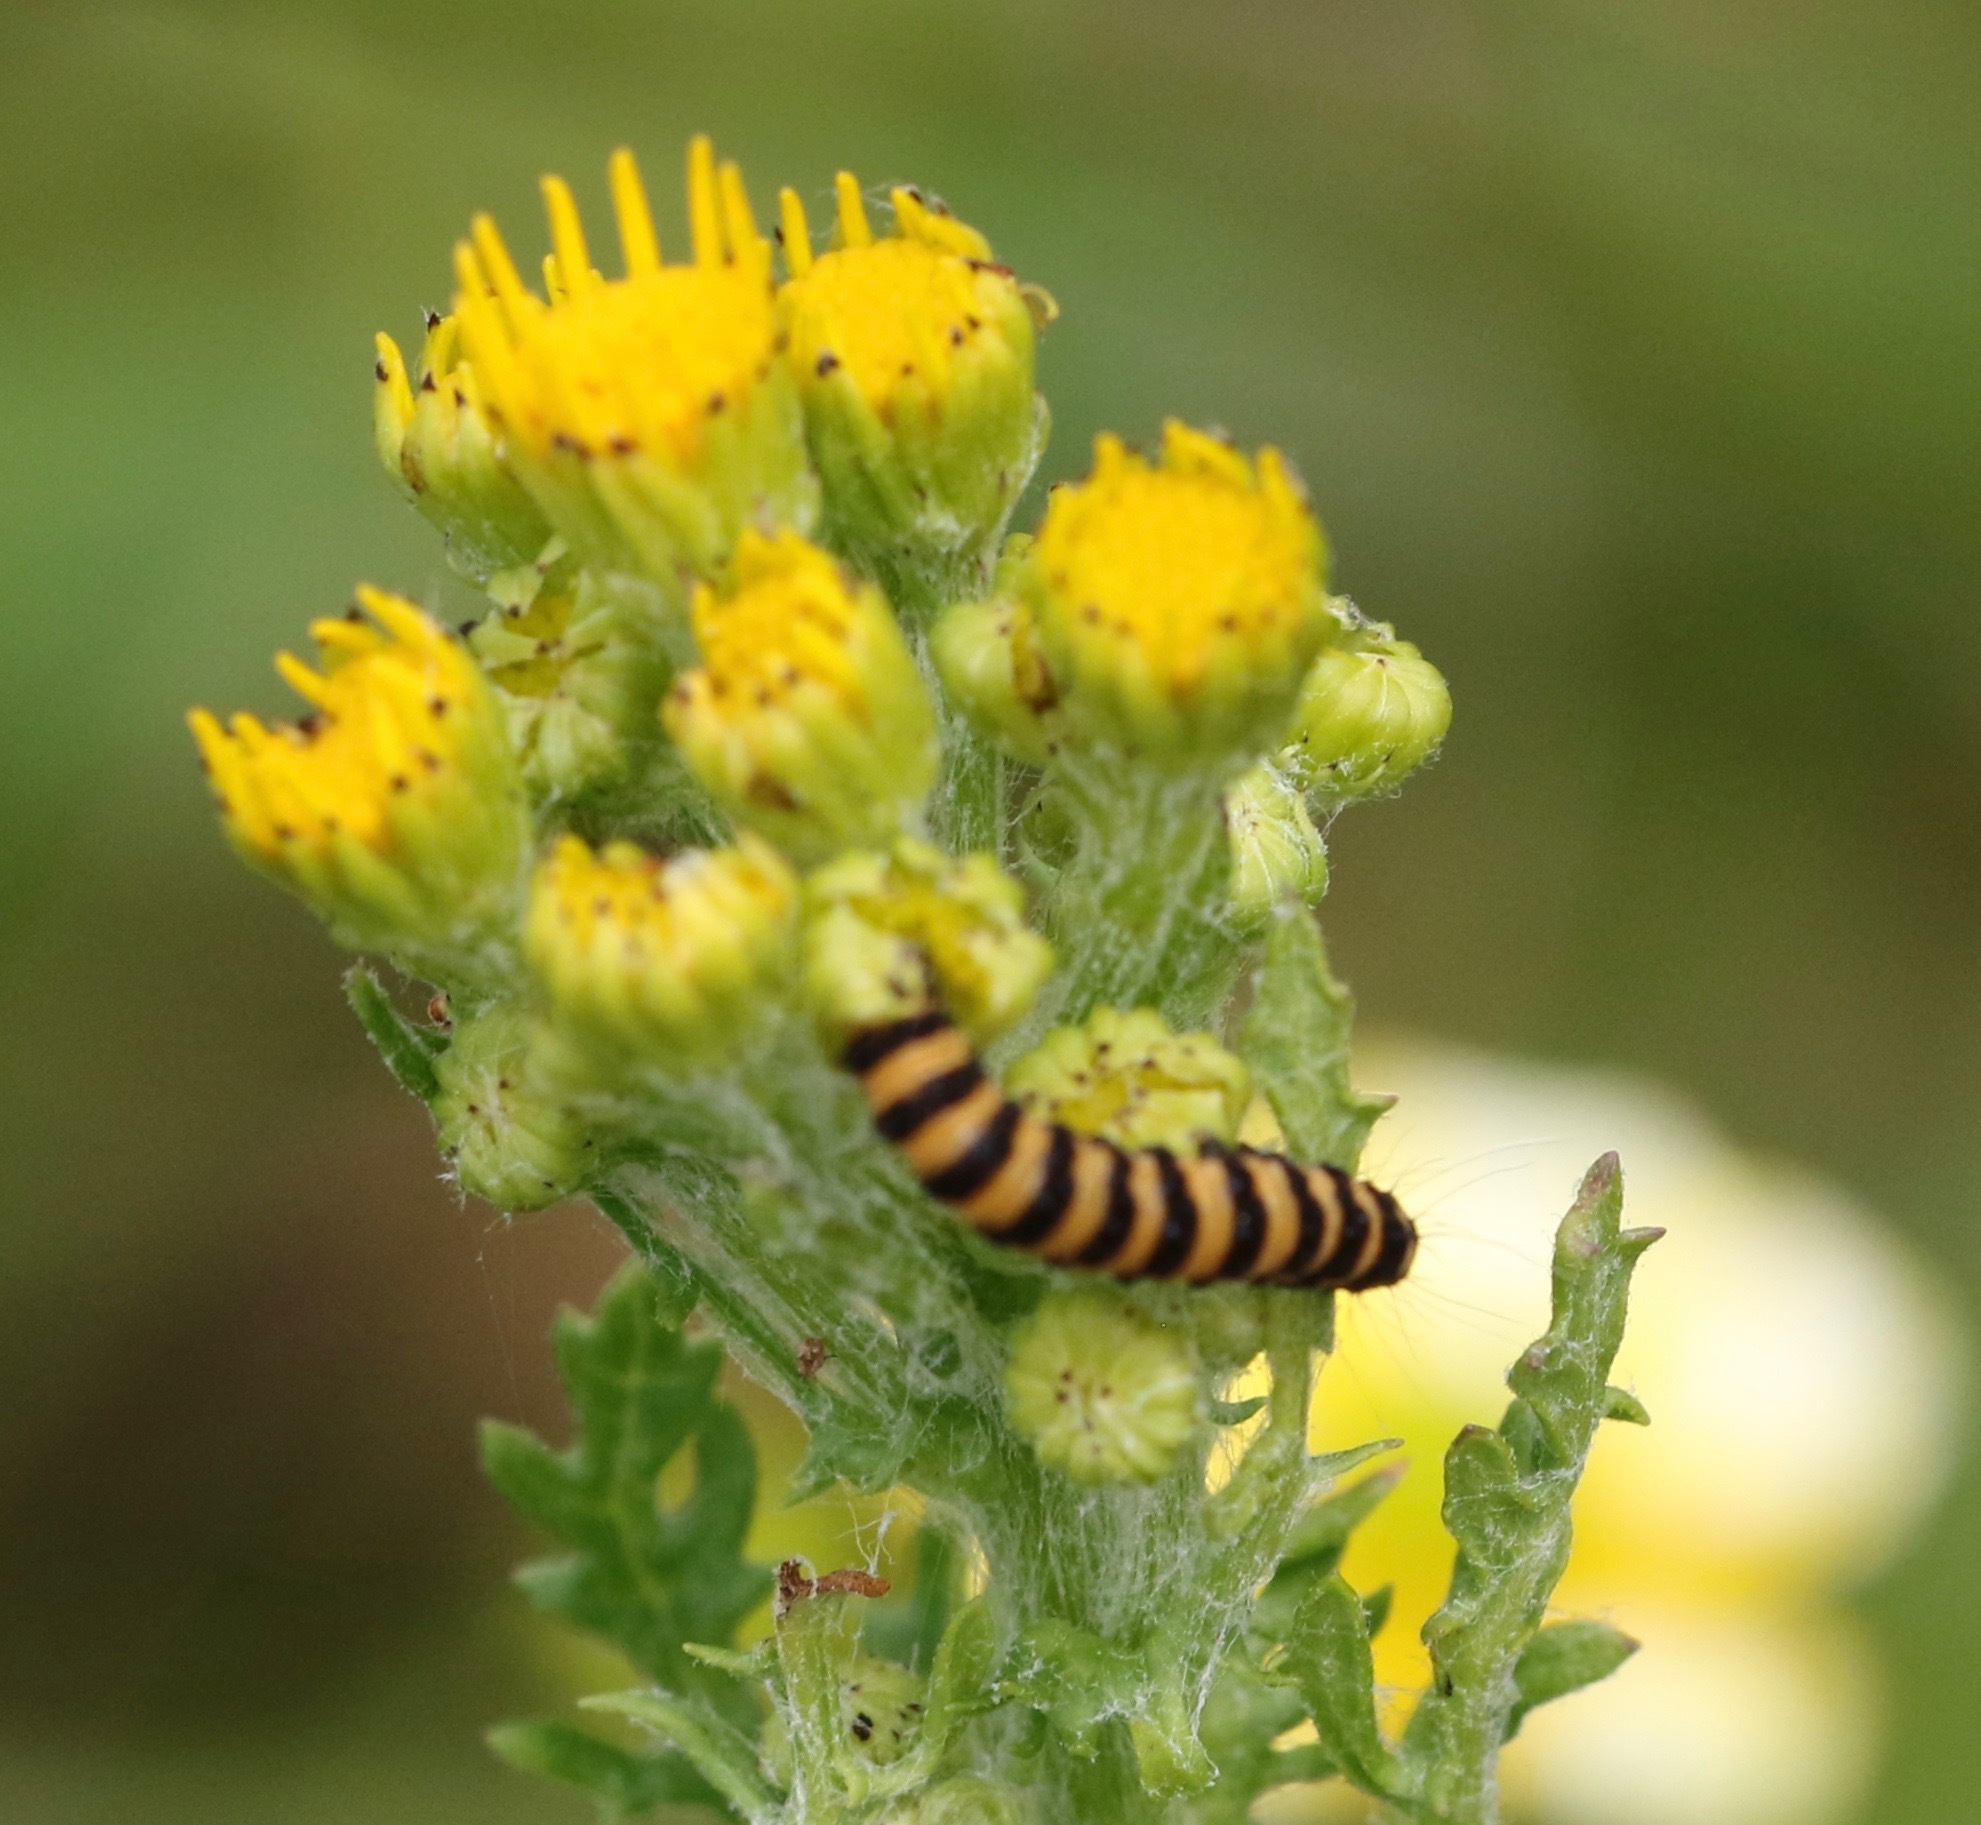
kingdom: Animalia
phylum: Arthropoda
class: Insecta
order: Lepidoptera
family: Erebidae
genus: Tyria
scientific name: Tyria jacobaeae
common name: Cinnabar
